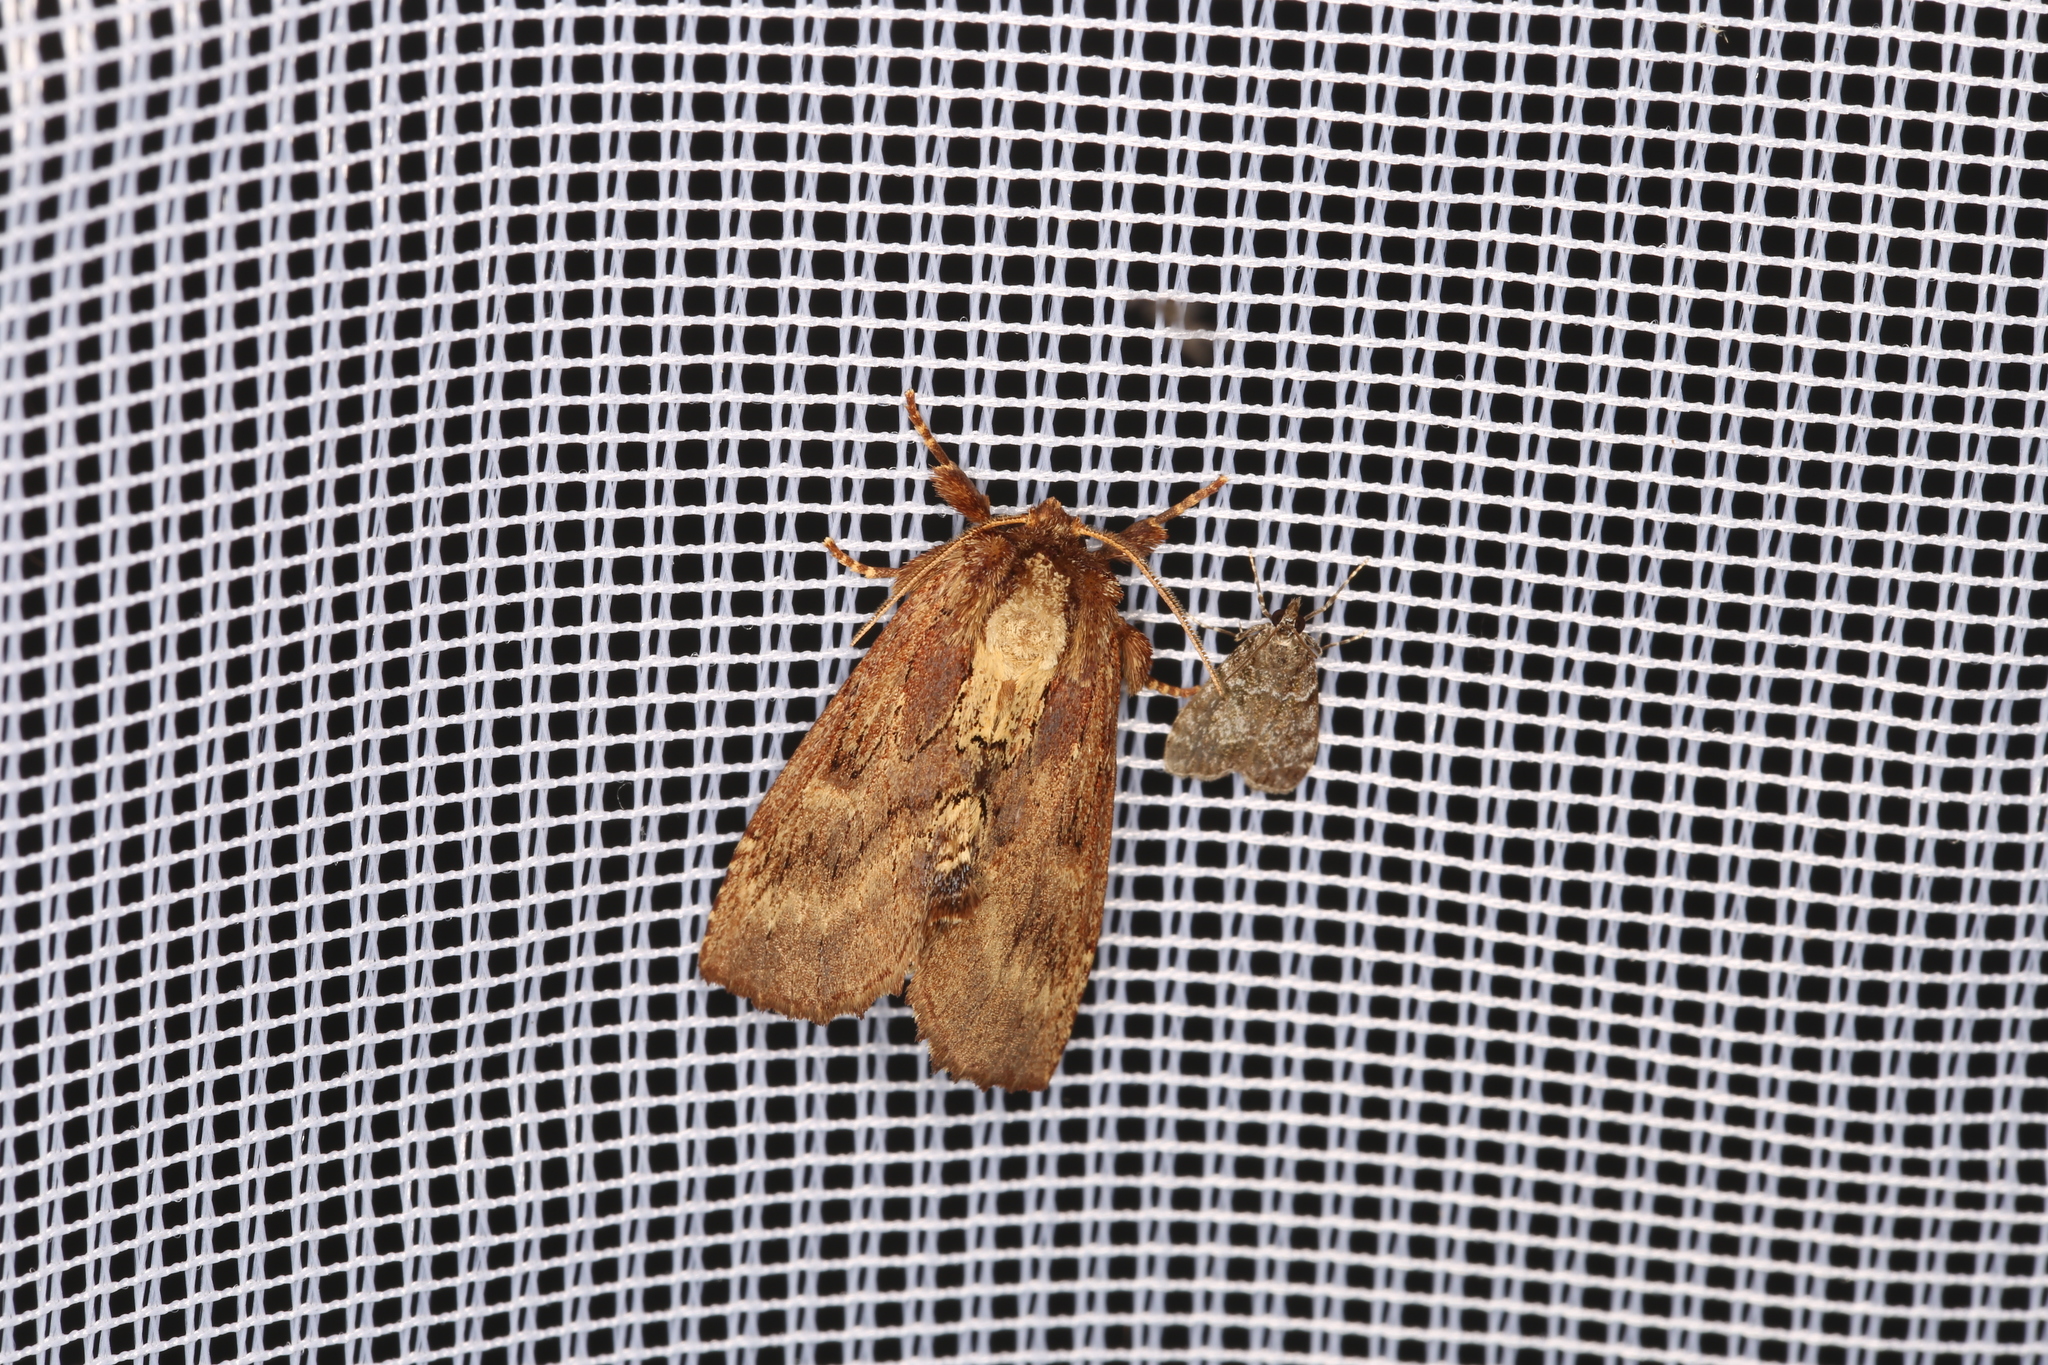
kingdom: Animalia
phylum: Arthropoda
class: Insecta
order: Lepidoptera
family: Notodontidae
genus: Ptilodon
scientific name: Ptilodon capucina
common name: Coxcomb prominent
